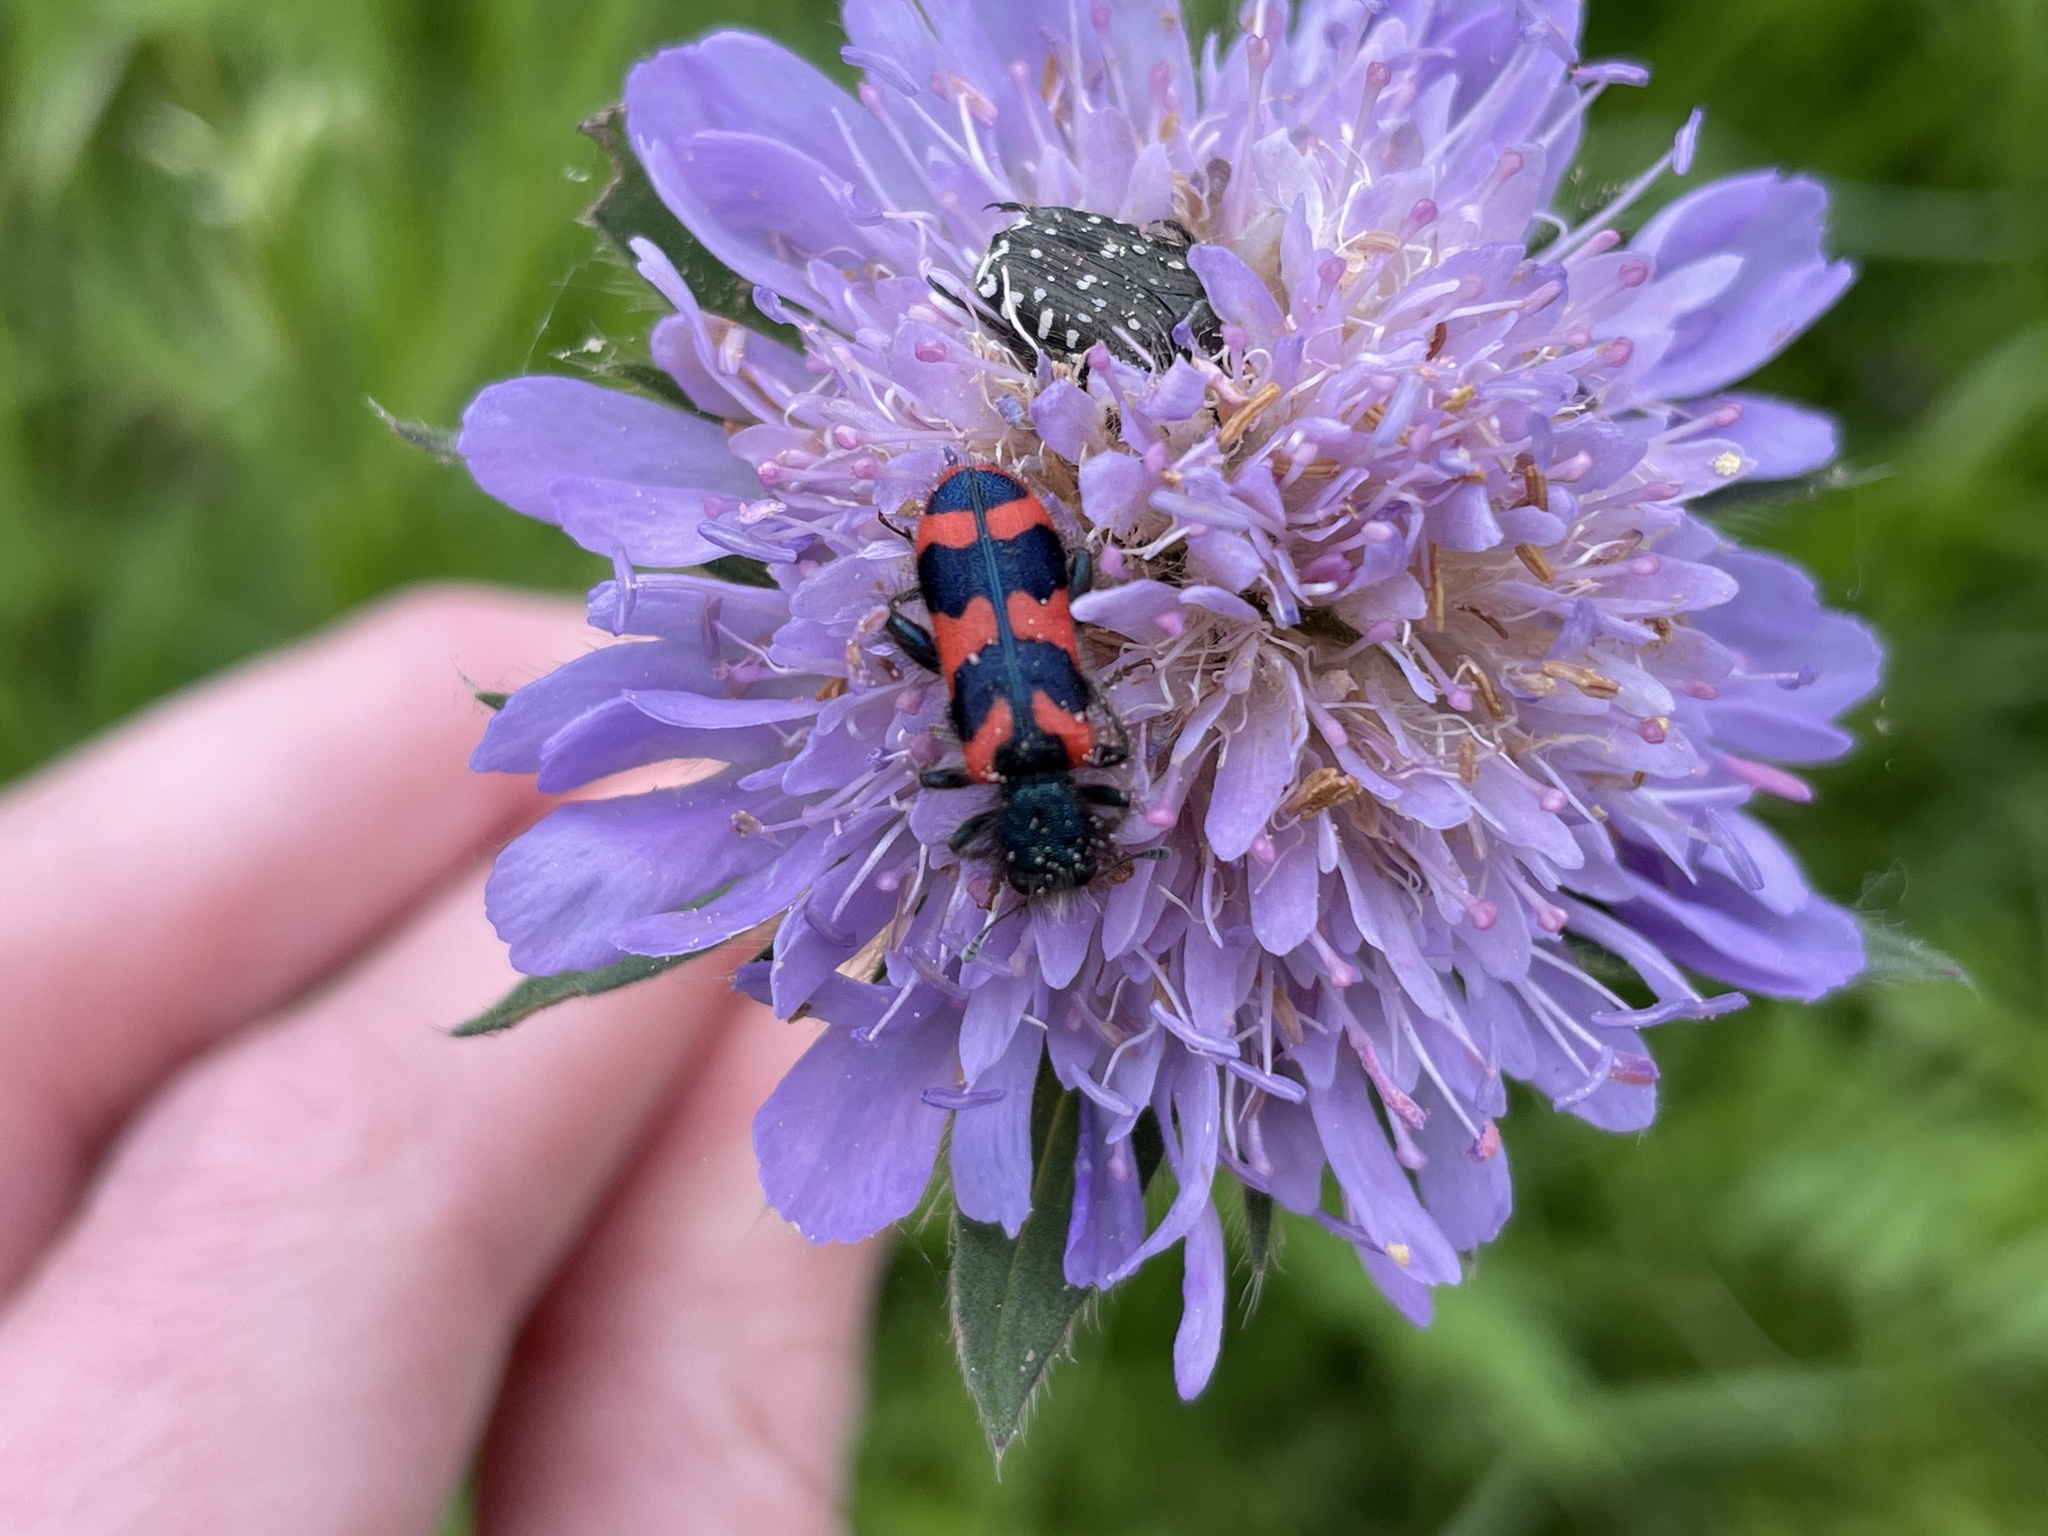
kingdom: Animalia
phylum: Arthropoda
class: Insecta
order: Coleoptera
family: Cleridae
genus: Trichodes
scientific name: Trichodes alvearius
